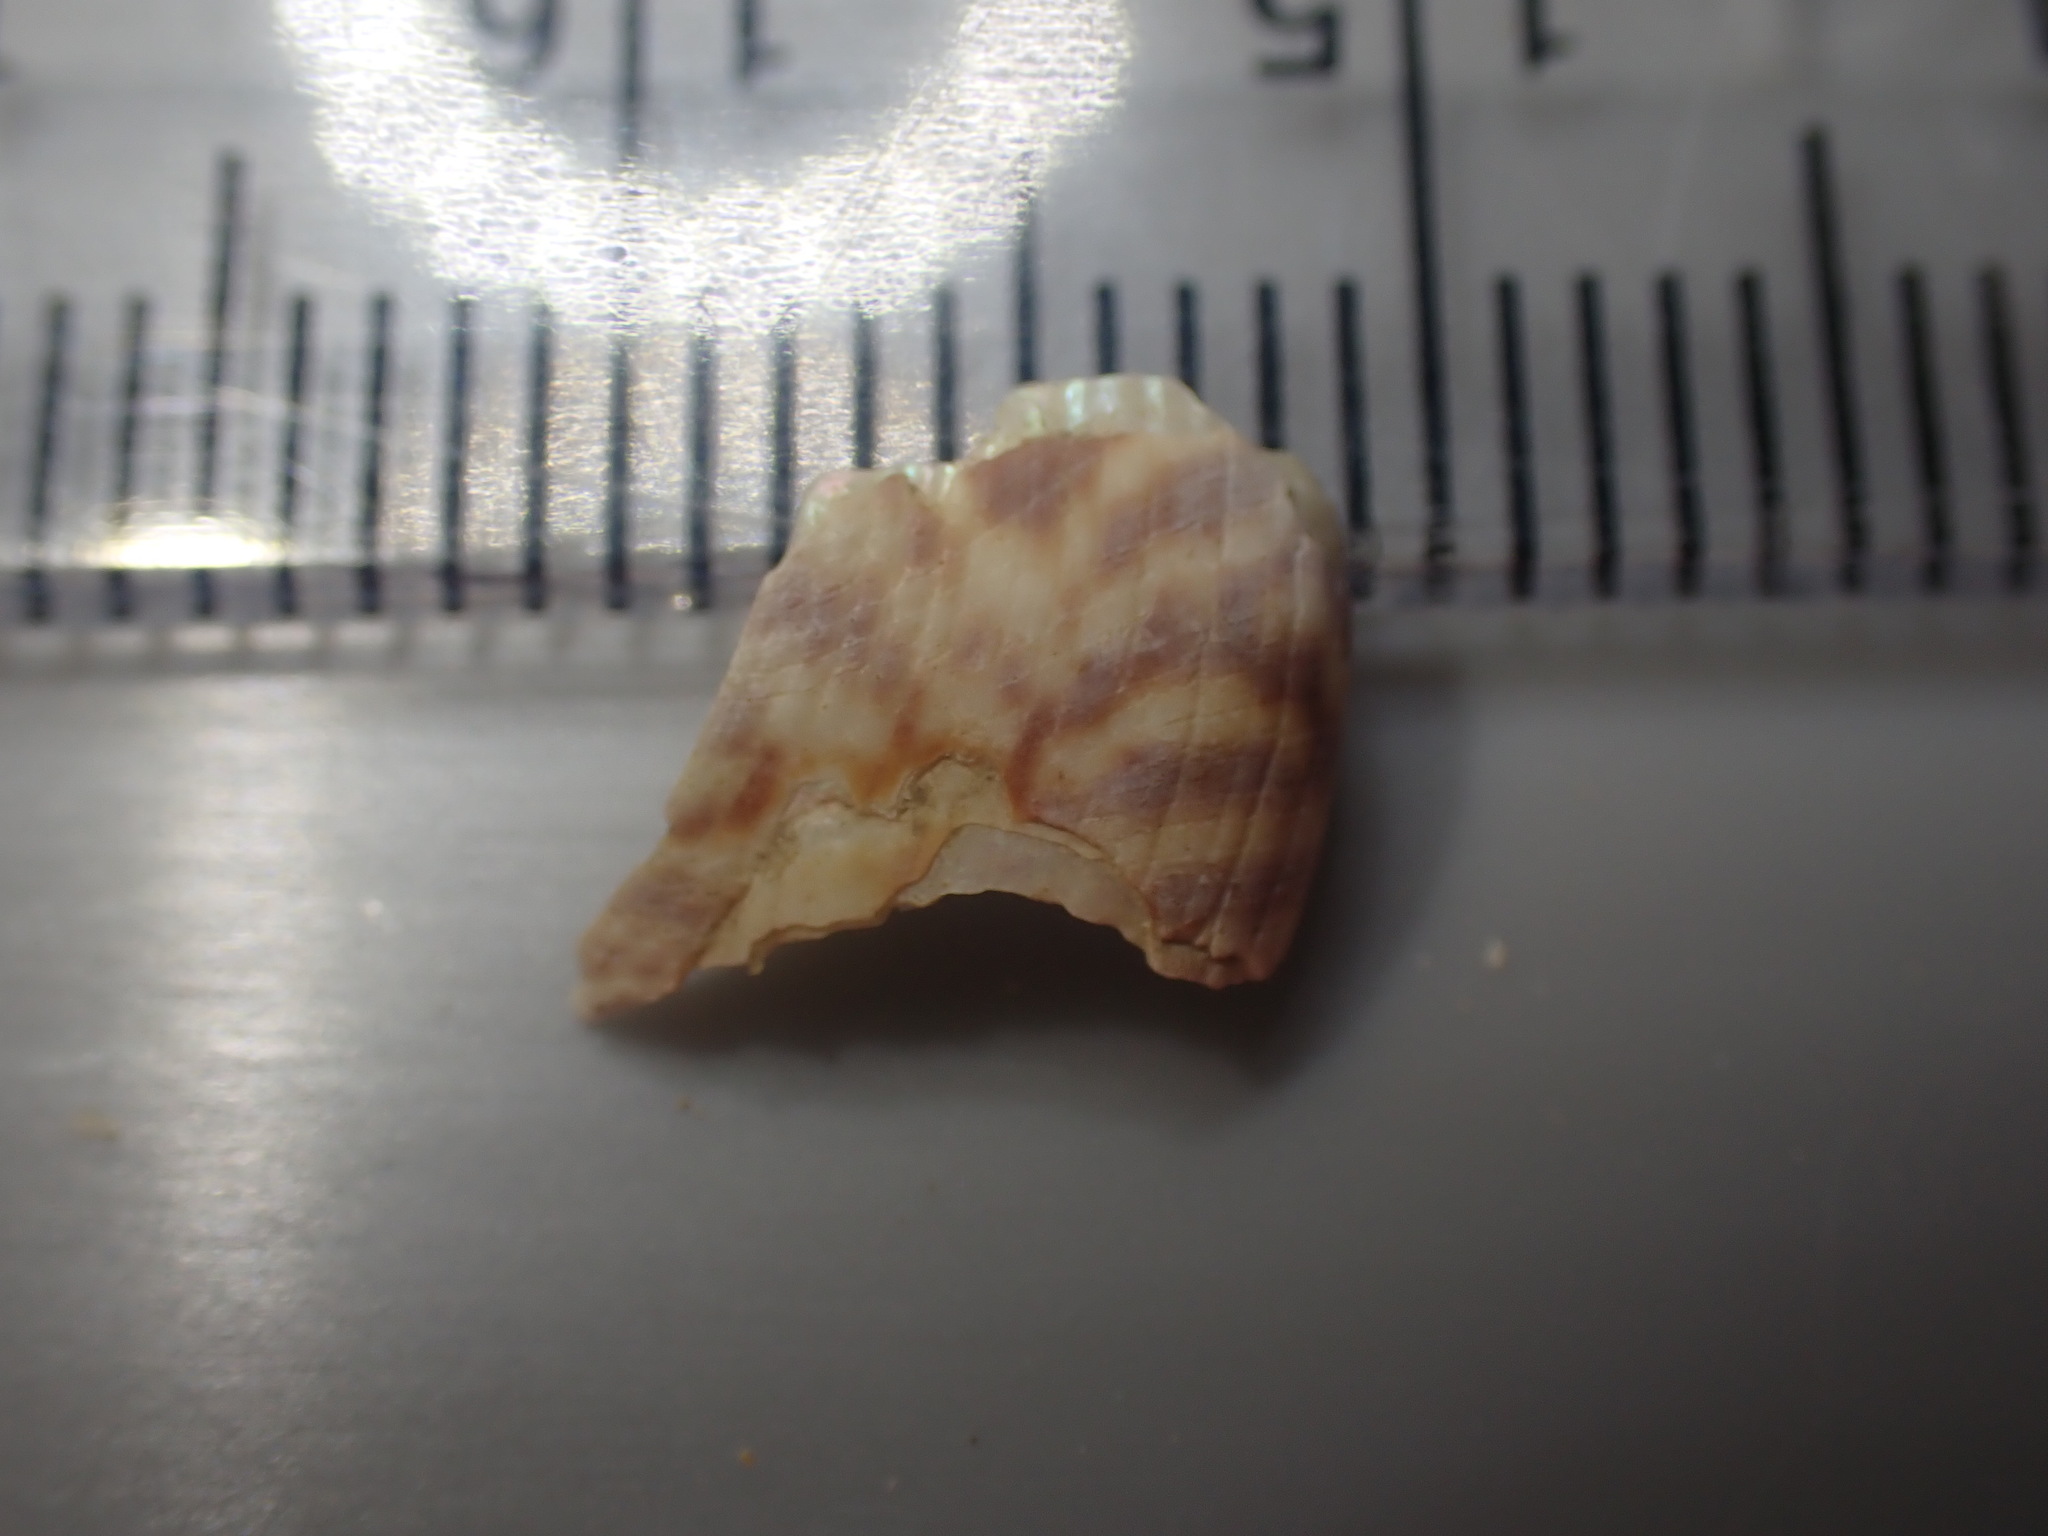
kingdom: Animalia
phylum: Mollusca
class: Gastropoda
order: Trochida
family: Calliostomatidae
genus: Maurea
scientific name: Maurea tigris
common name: Tiger maurea
